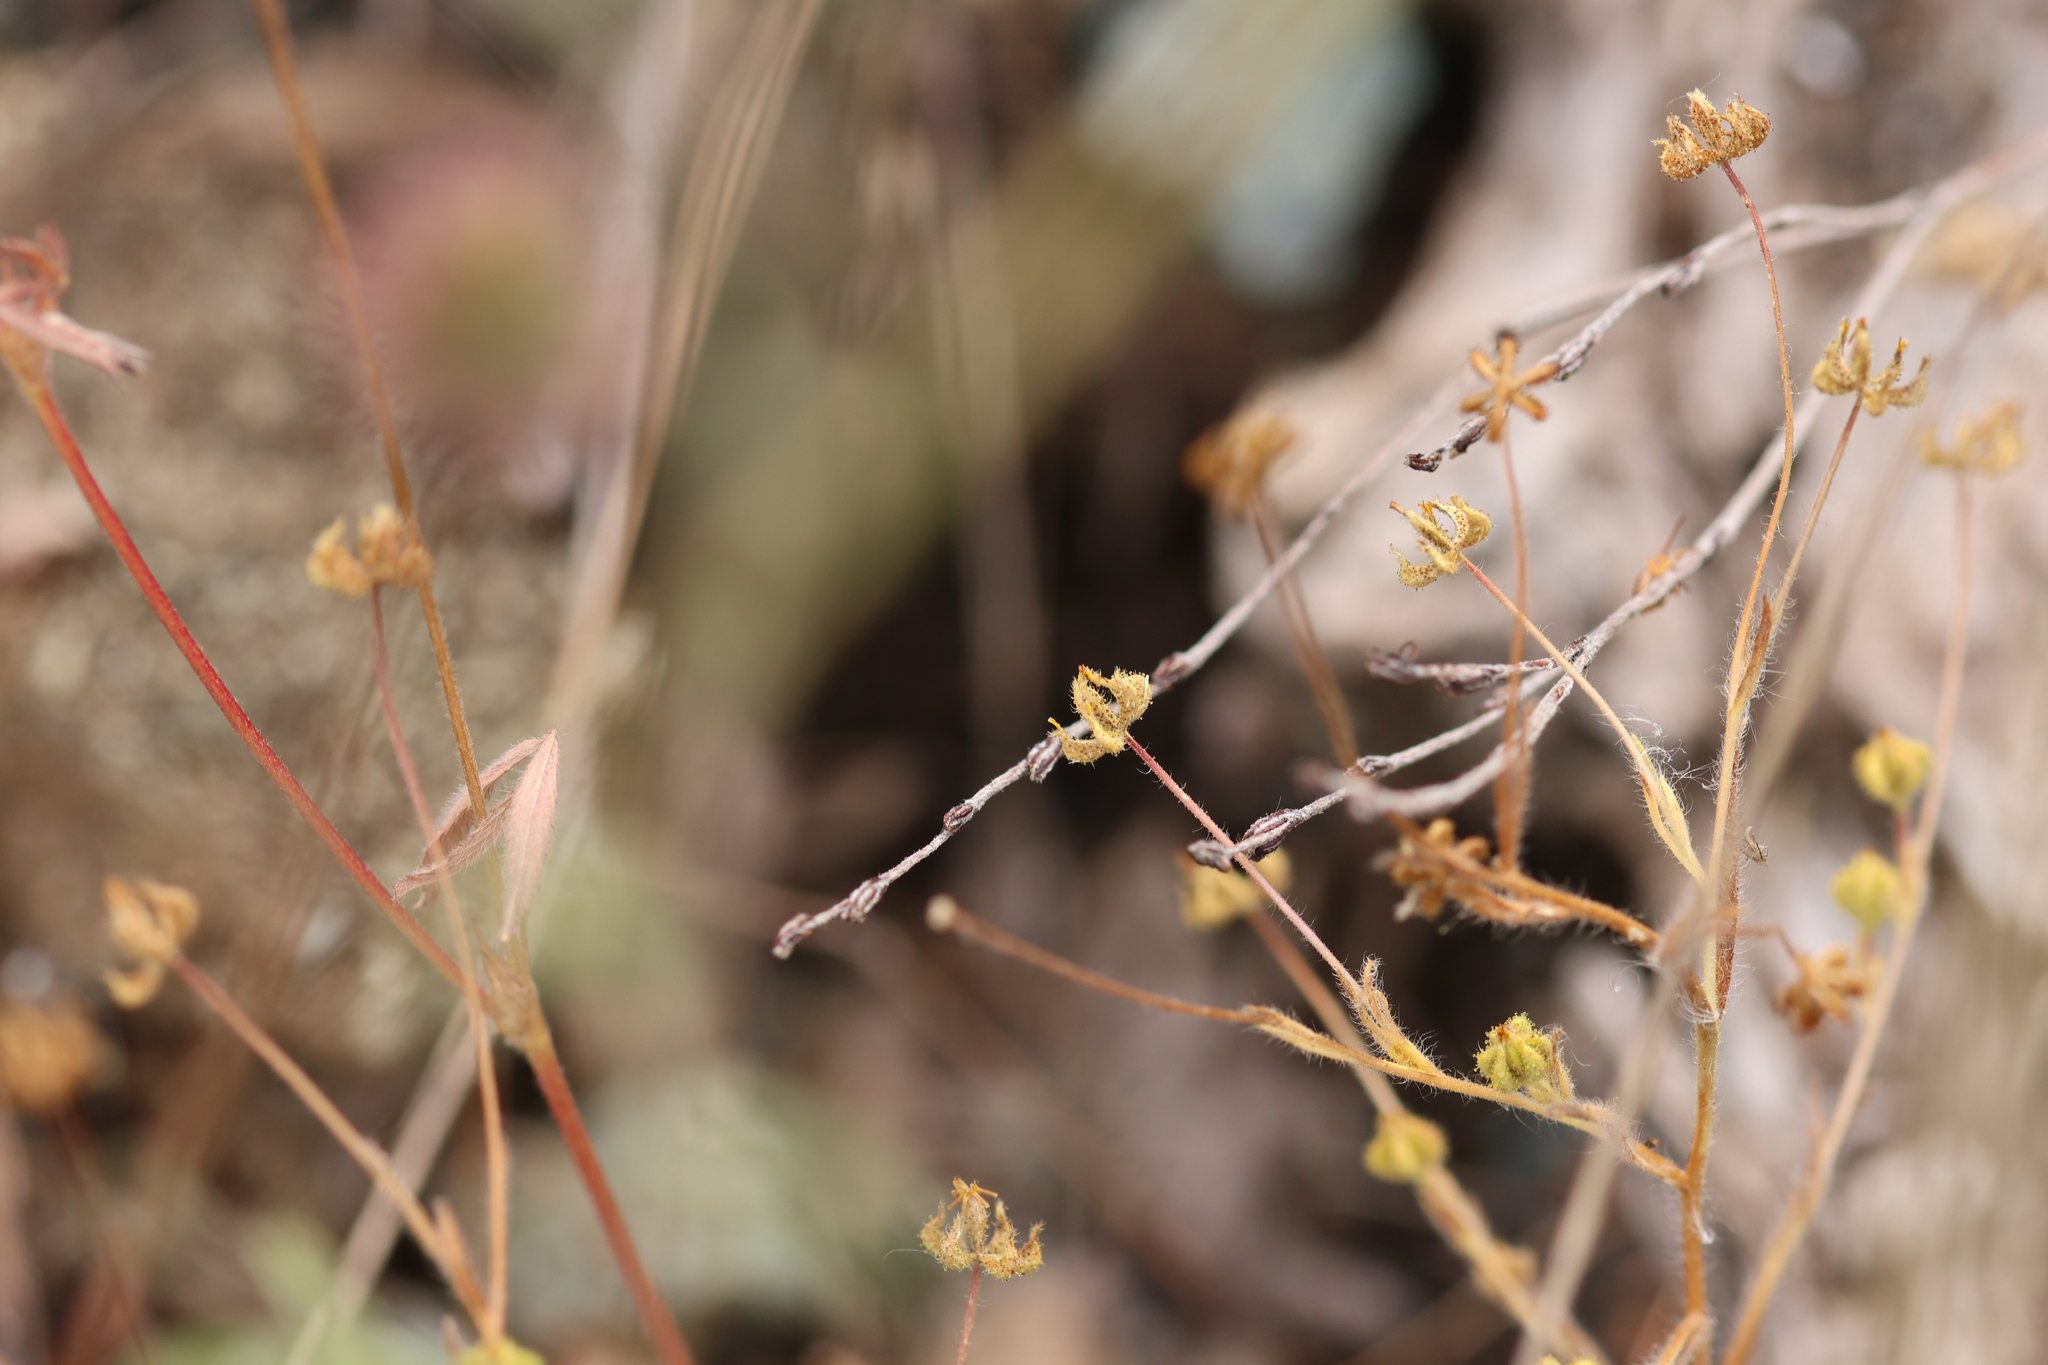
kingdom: Plantae
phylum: Tracheophyta
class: Magnoliopsida
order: Asterales
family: Asteraceae
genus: Madia
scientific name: Madia exigua
